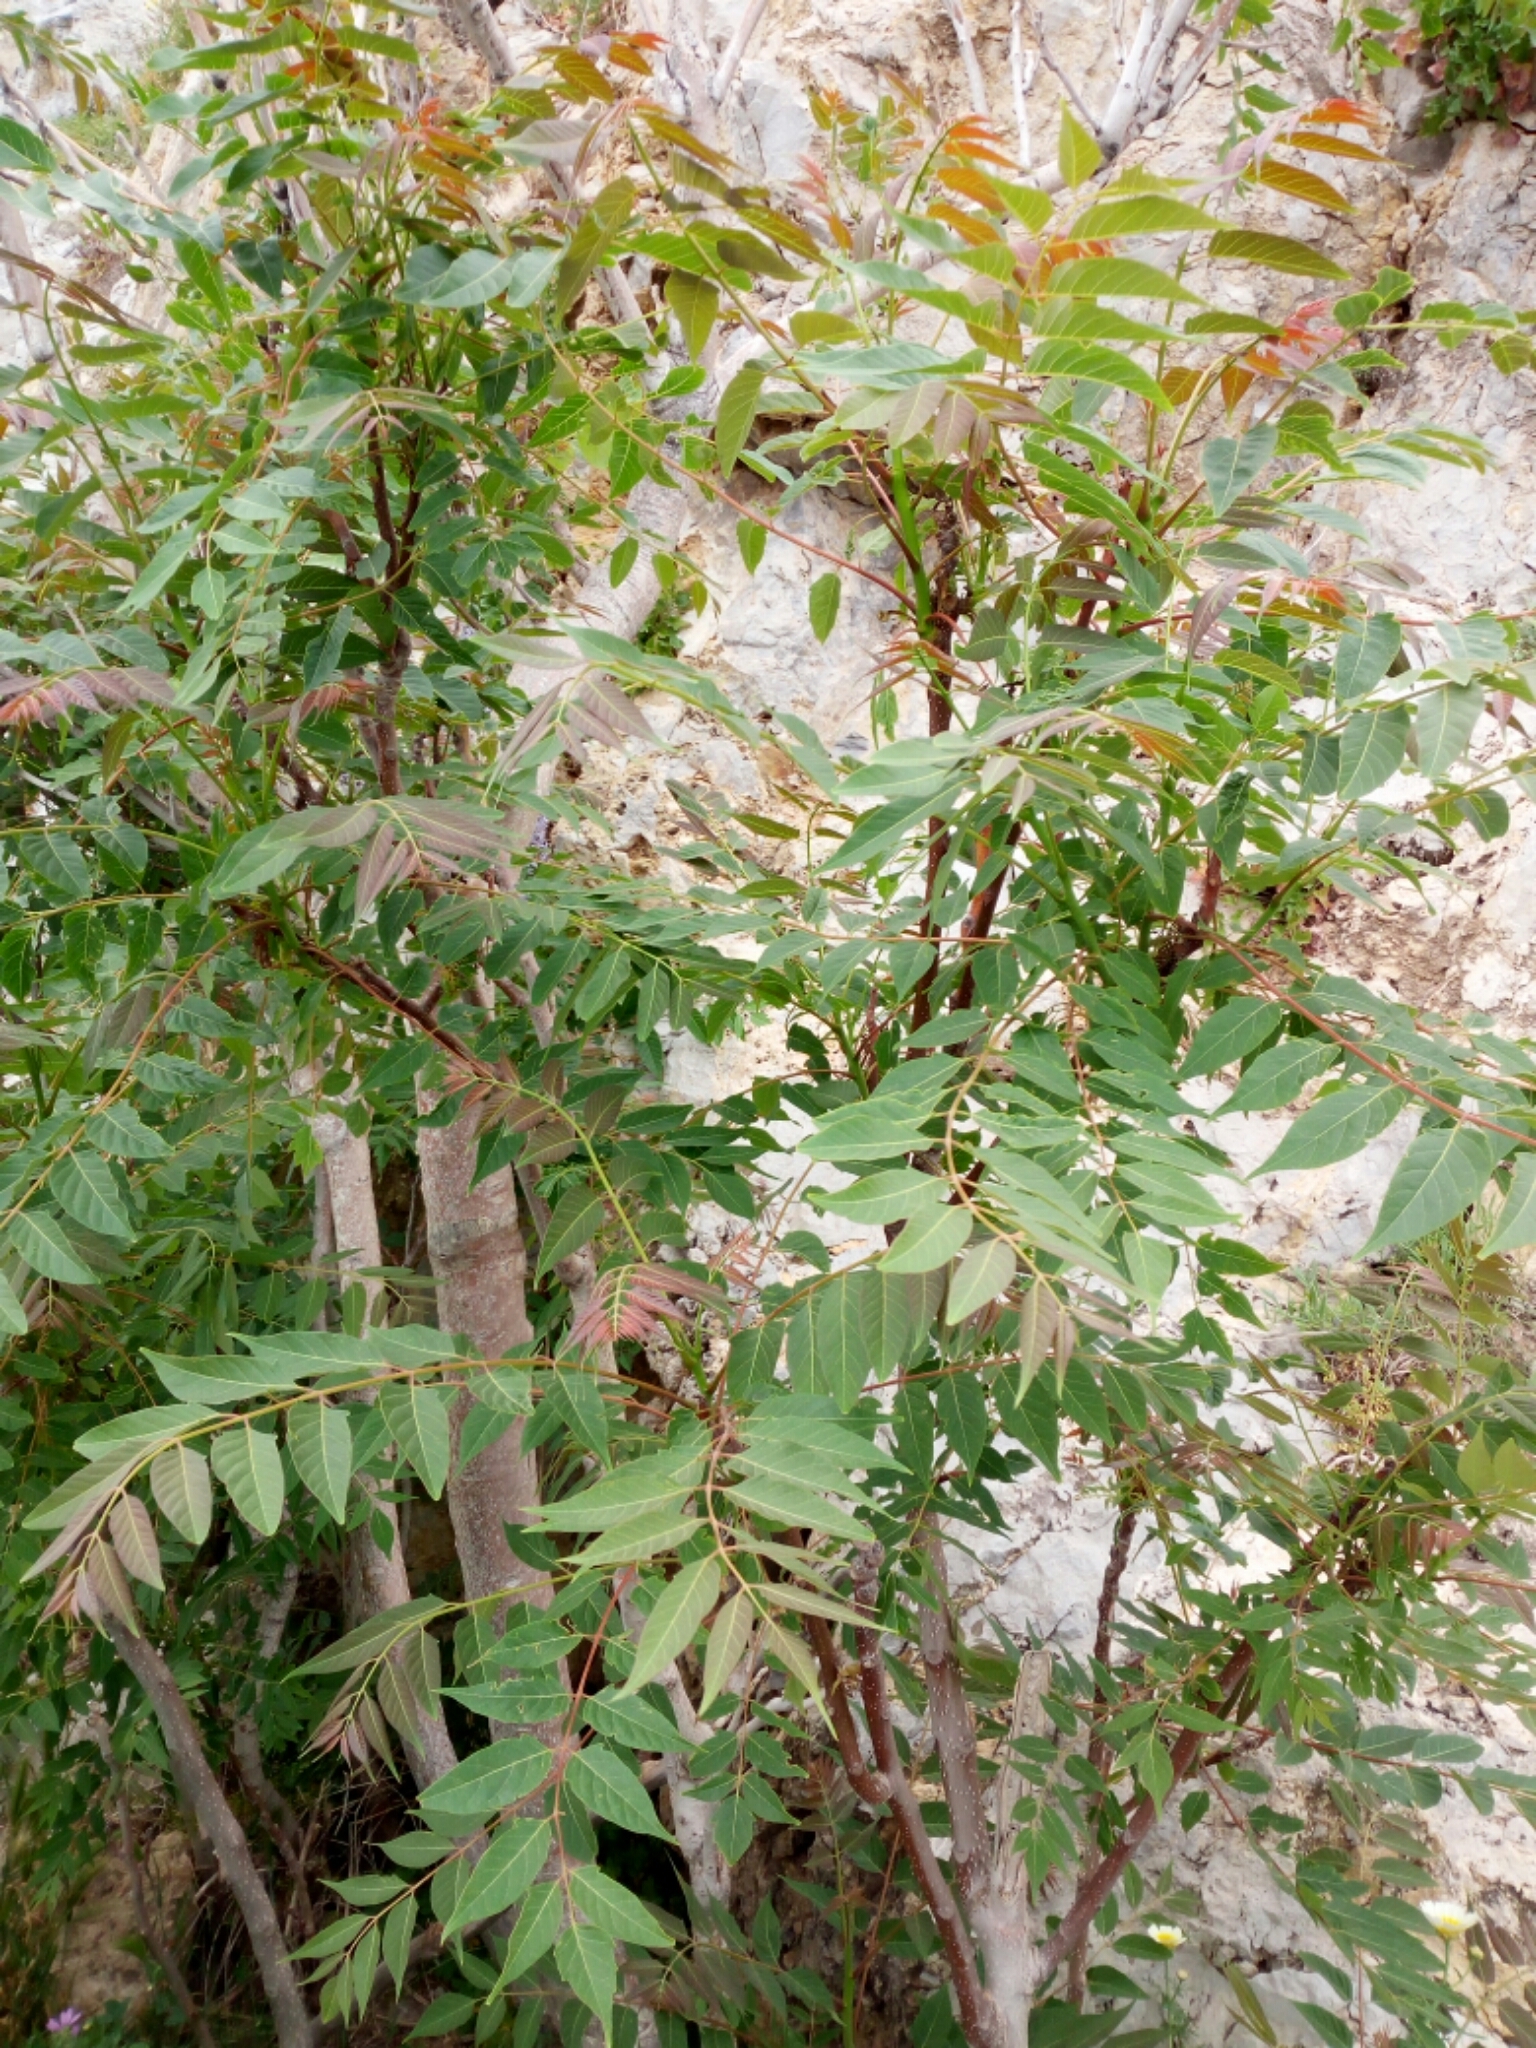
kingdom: Plantae
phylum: Tracheophyta
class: Magnoliopsida
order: Sapindales
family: Simaroubaceae
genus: Ailanthus
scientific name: Ailanthus altissima
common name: Tree-of-heaven
